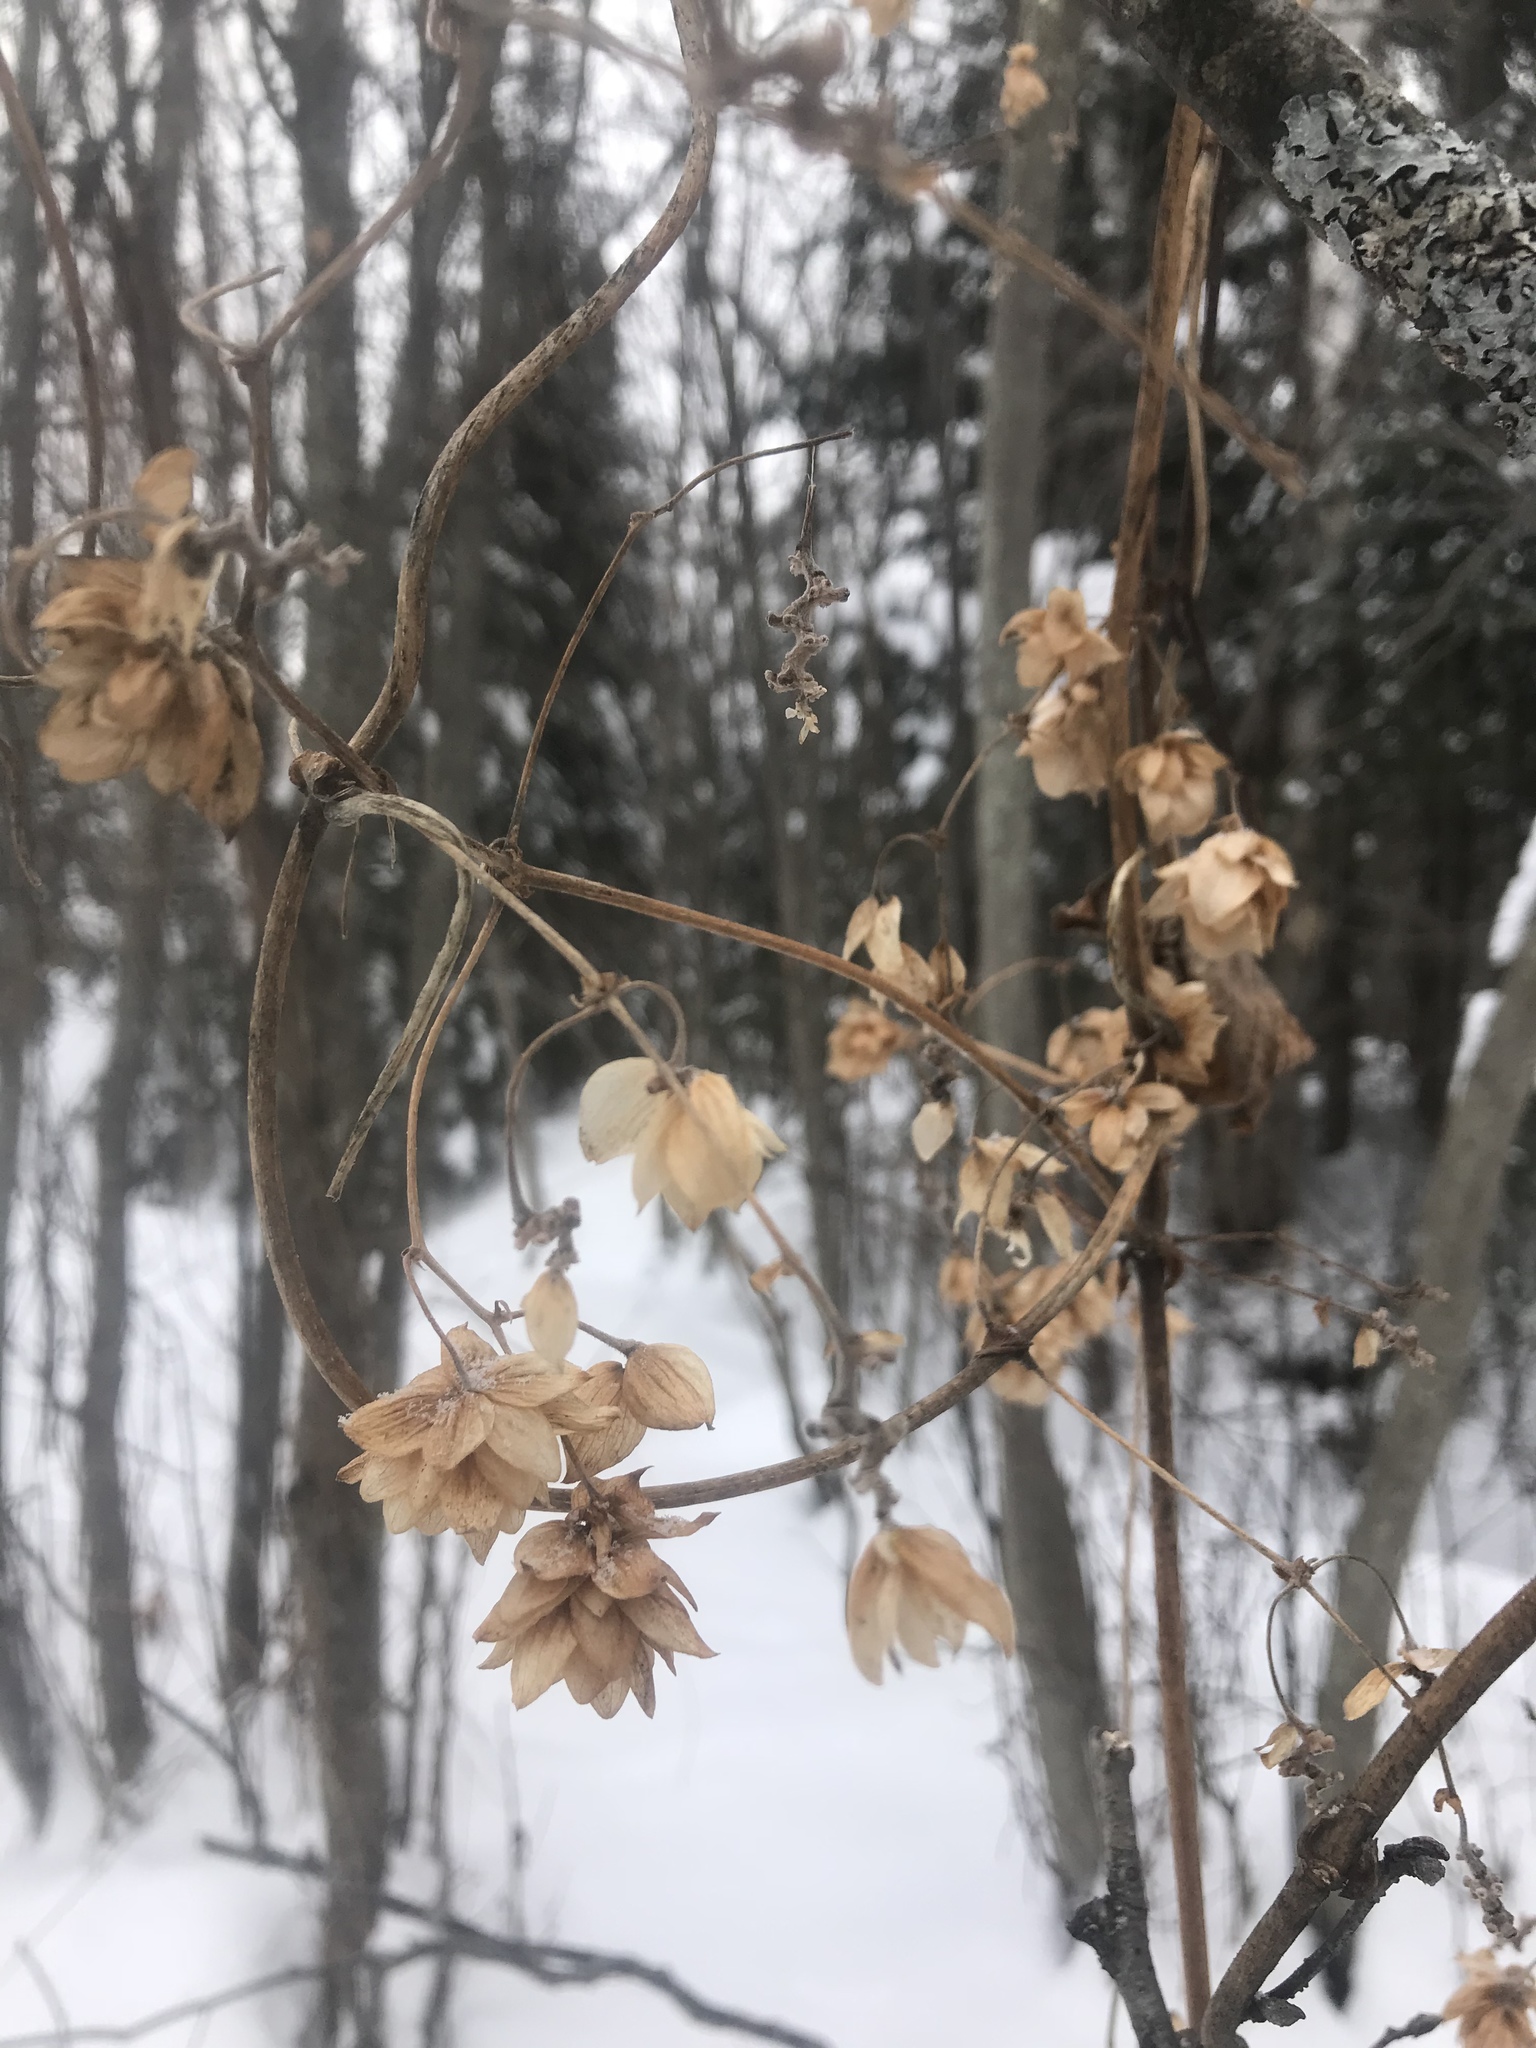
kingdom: Plantae
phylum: Tracheophyta
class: Magnoliopsida
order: Rosales
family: Cannabaceae
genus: Humulus
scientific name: Humulus lupulus
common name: Hop
